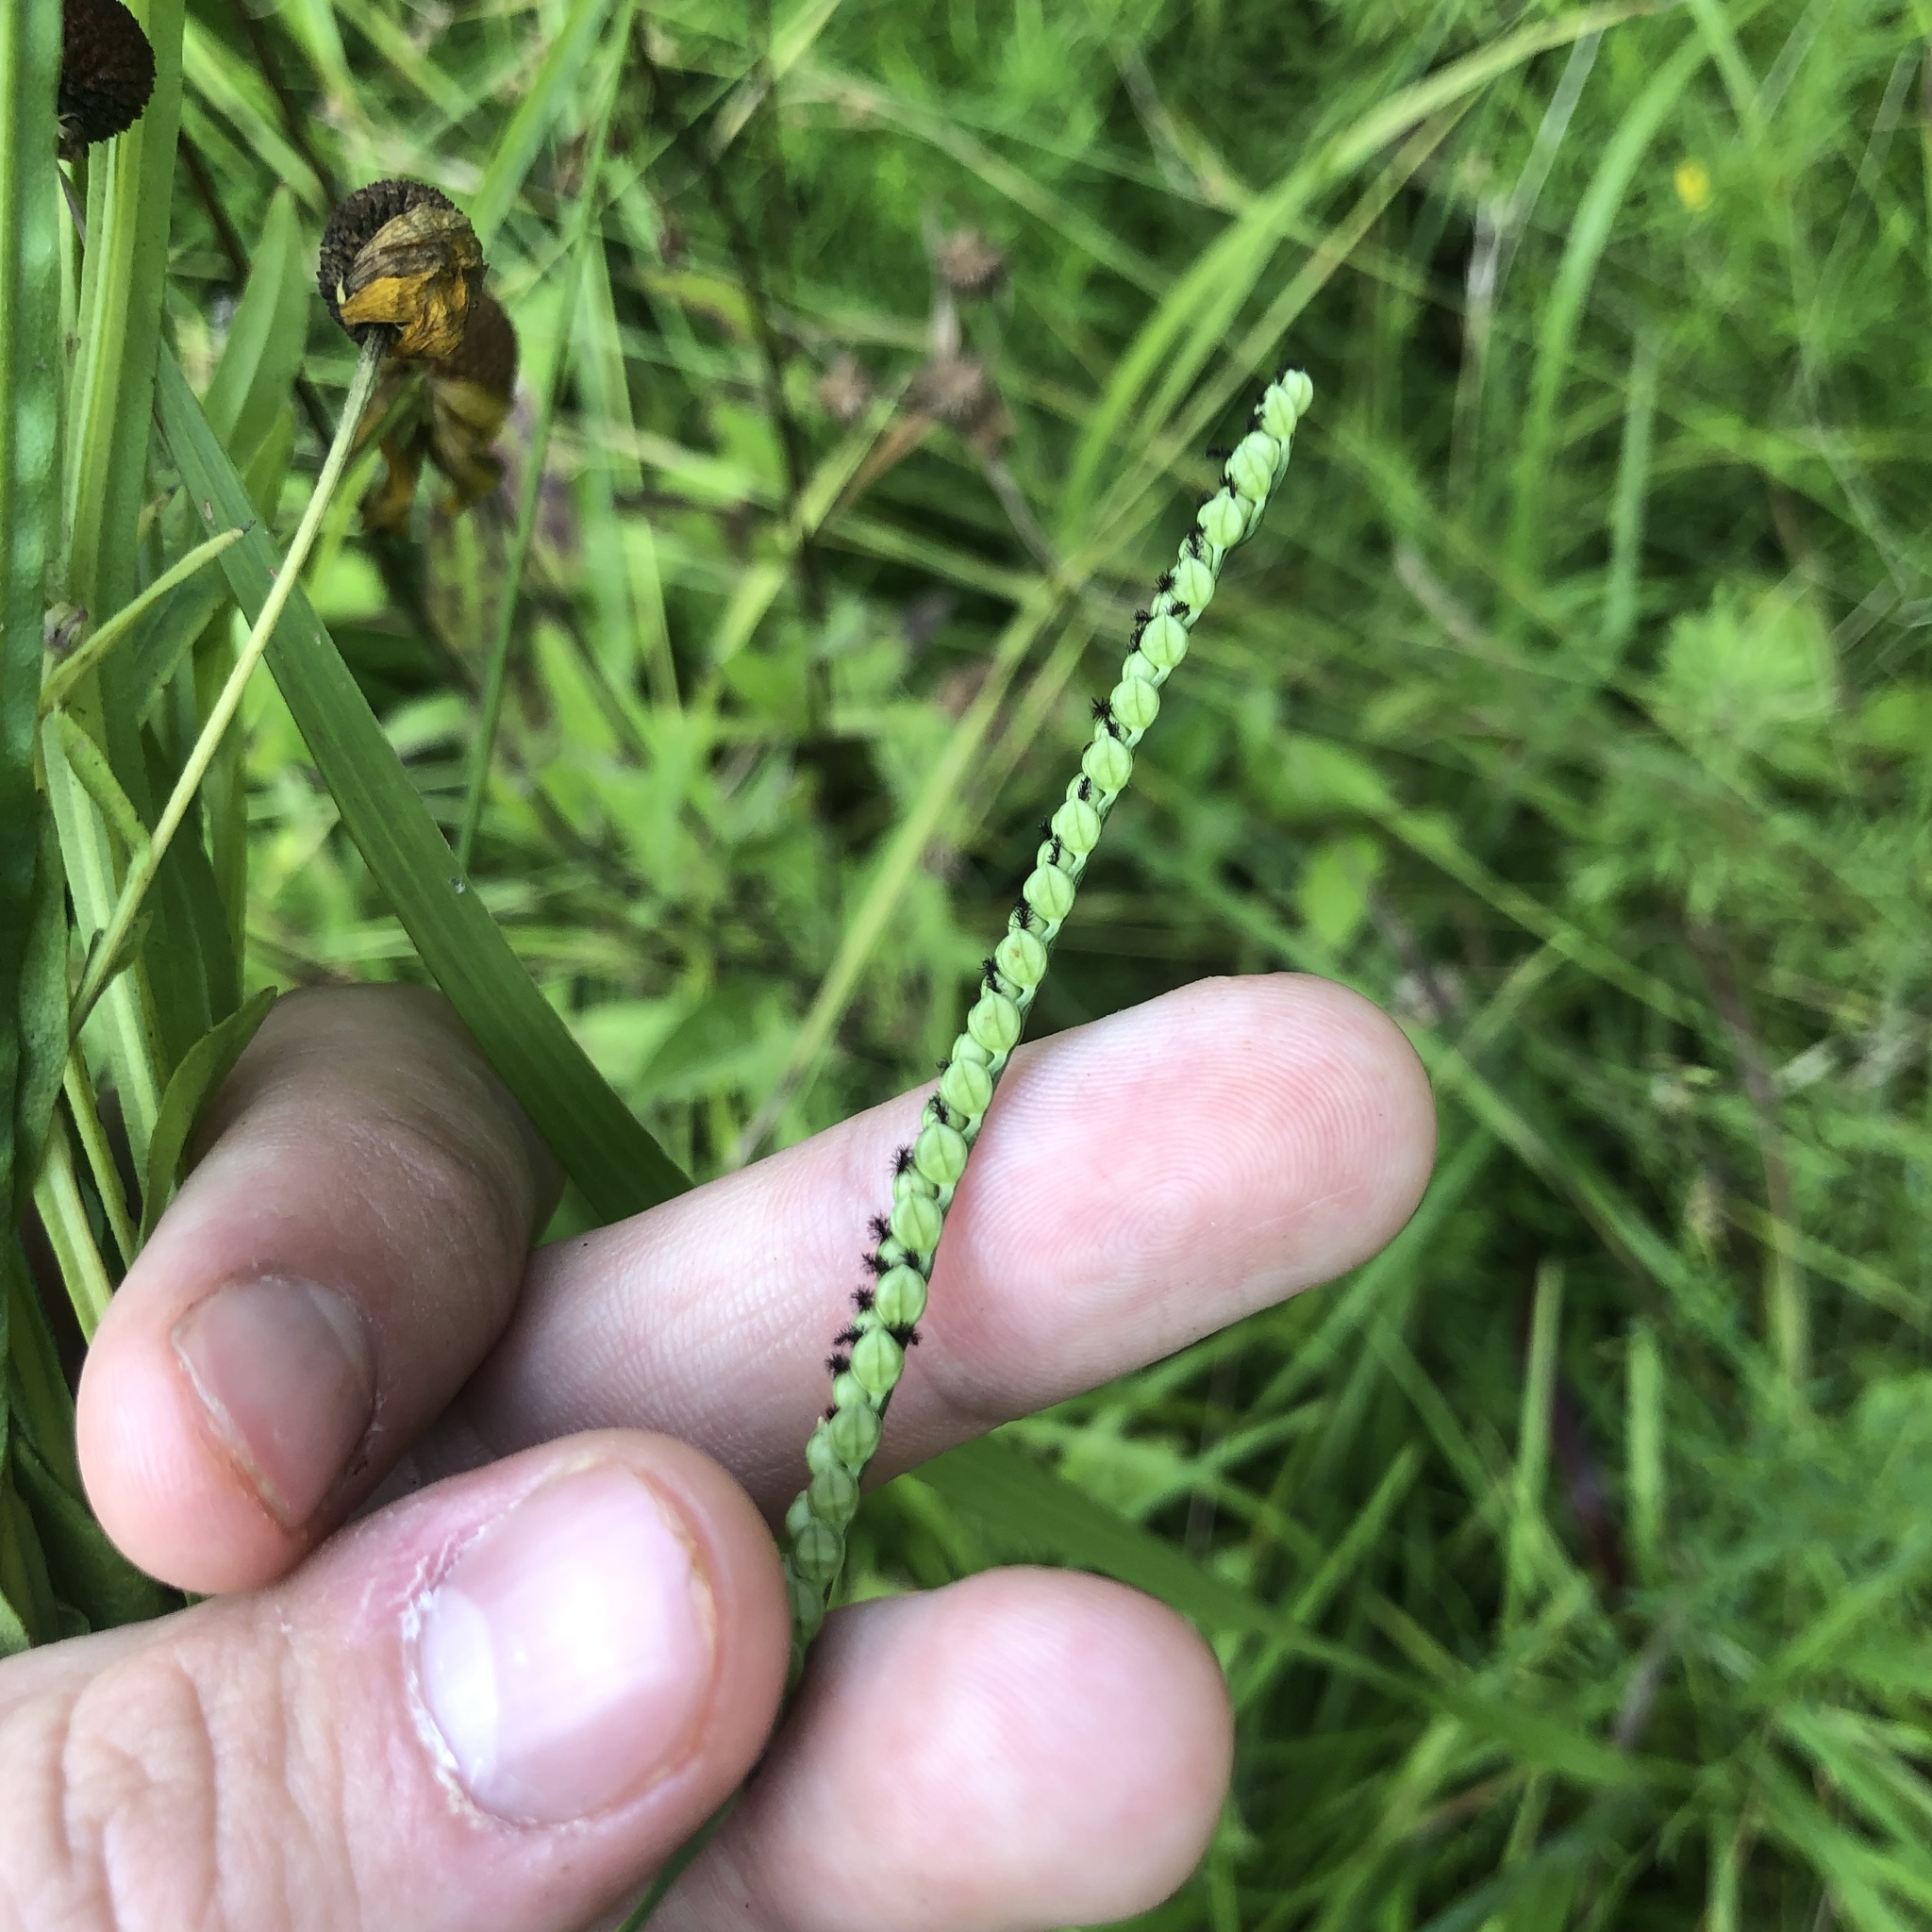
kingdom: Plantae
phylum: Tracheophyta
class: Liliopsida
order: Poales
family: Poaceae
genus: Paspalum
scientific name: Paspalum laeve
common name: Field paspalum
